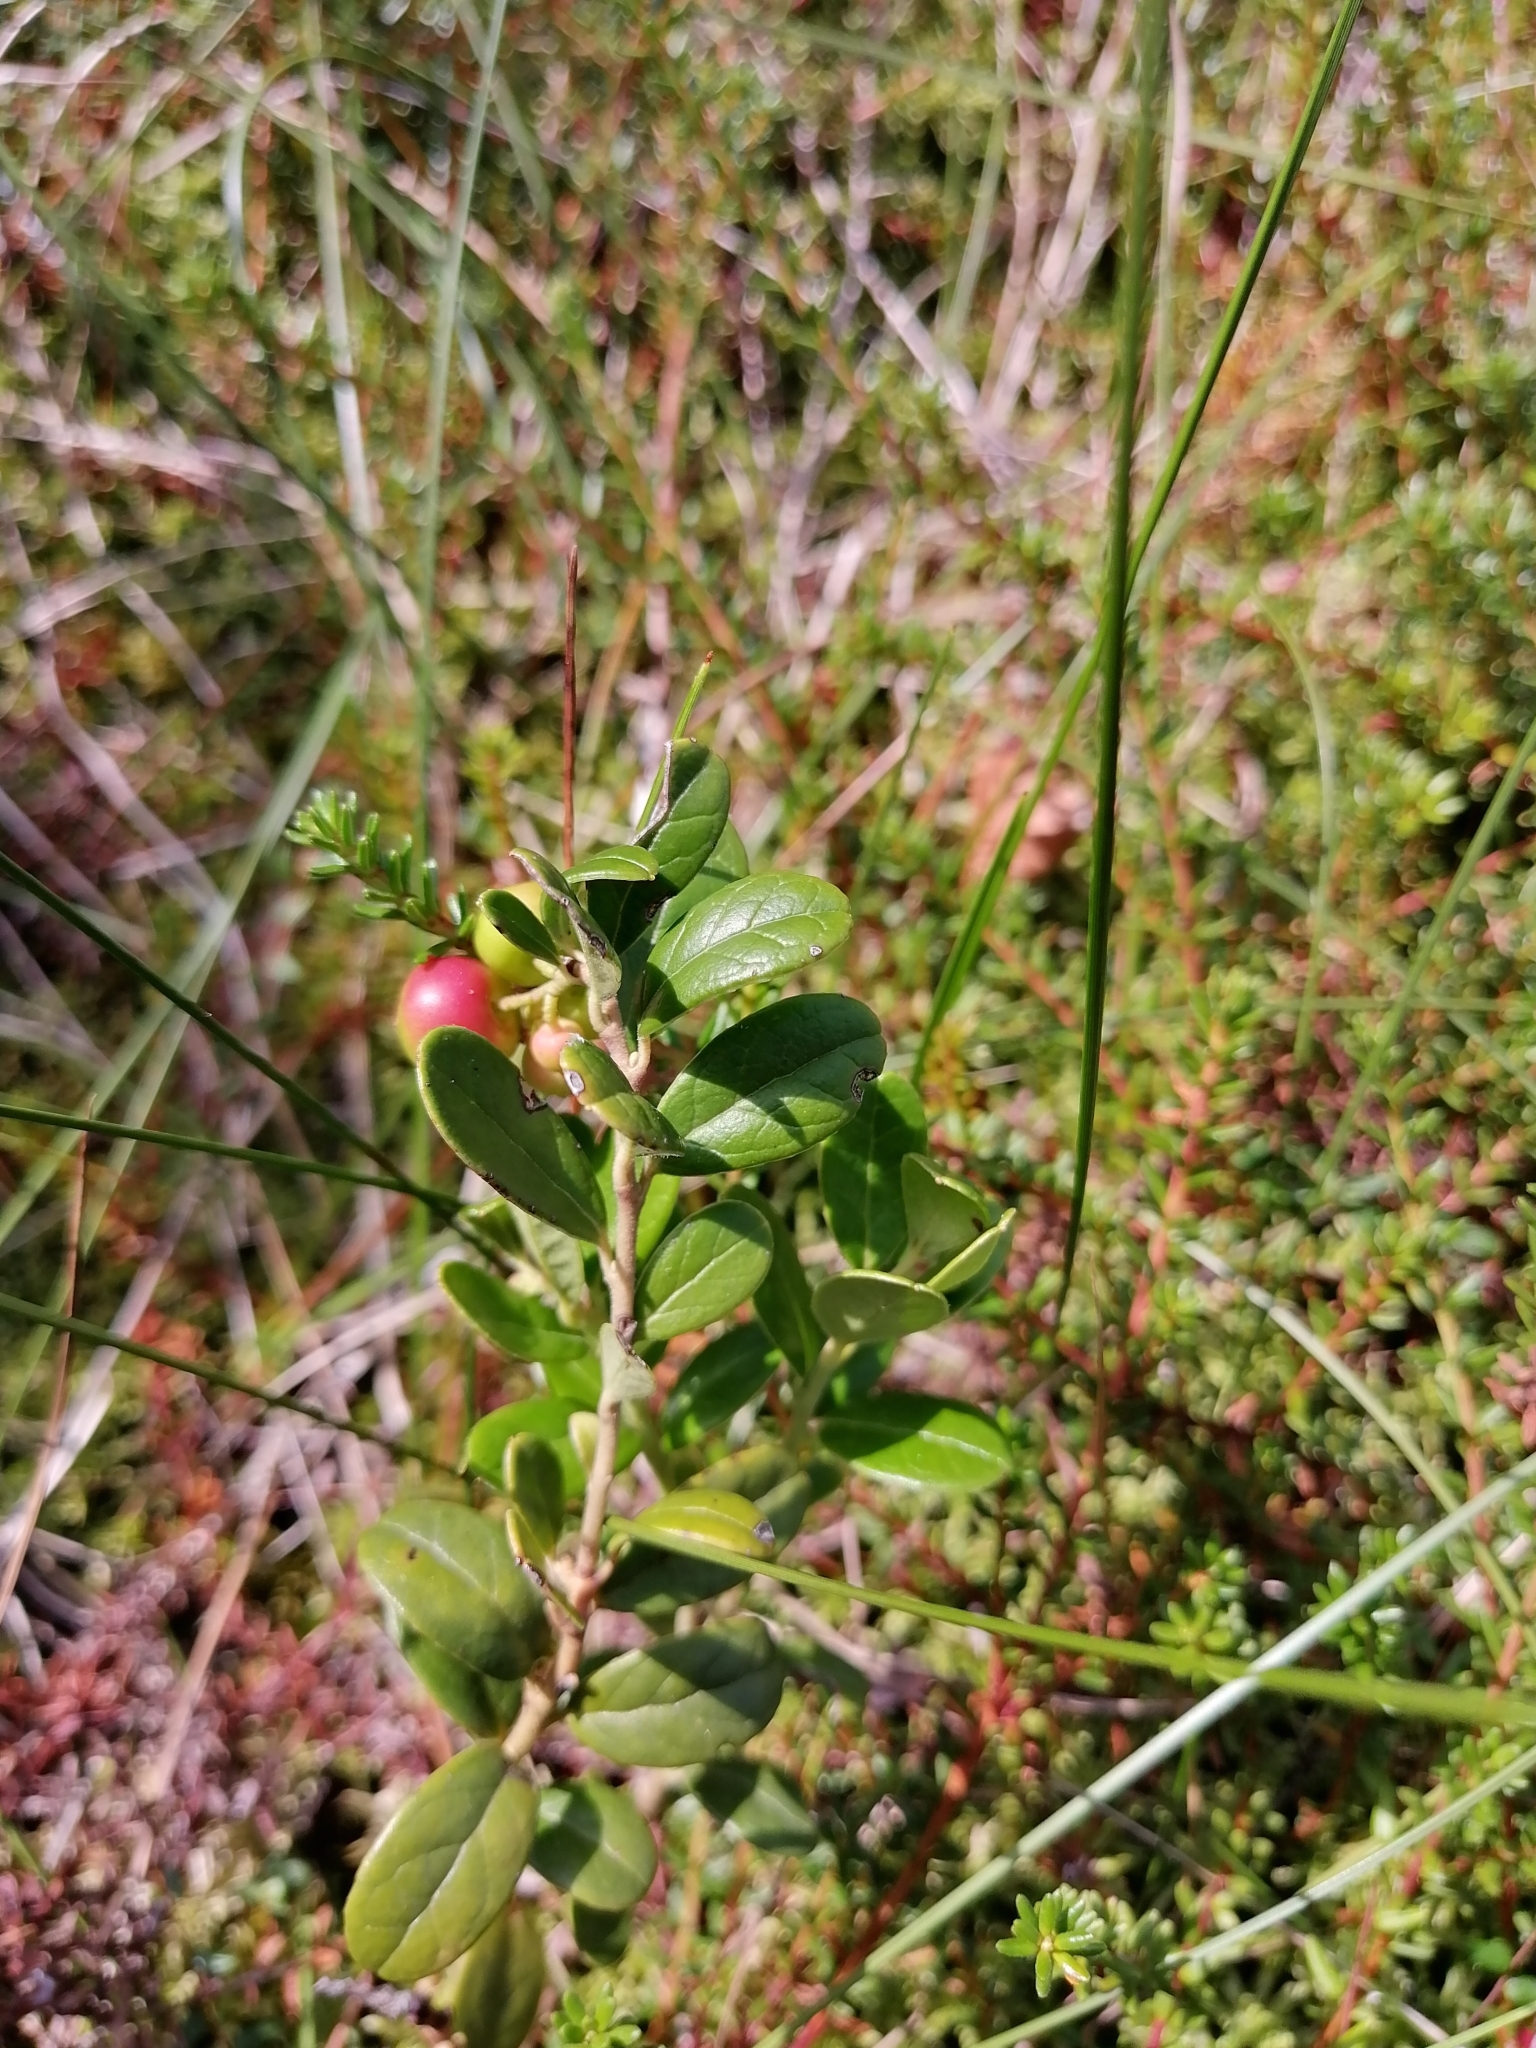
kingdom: Plantae
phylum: Tracheophyta
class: Magnoliopsida
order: Ericales
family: Ericaceae
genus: Vaccinium
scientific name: Vaccinium vitis-idaea
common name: Cowberry
